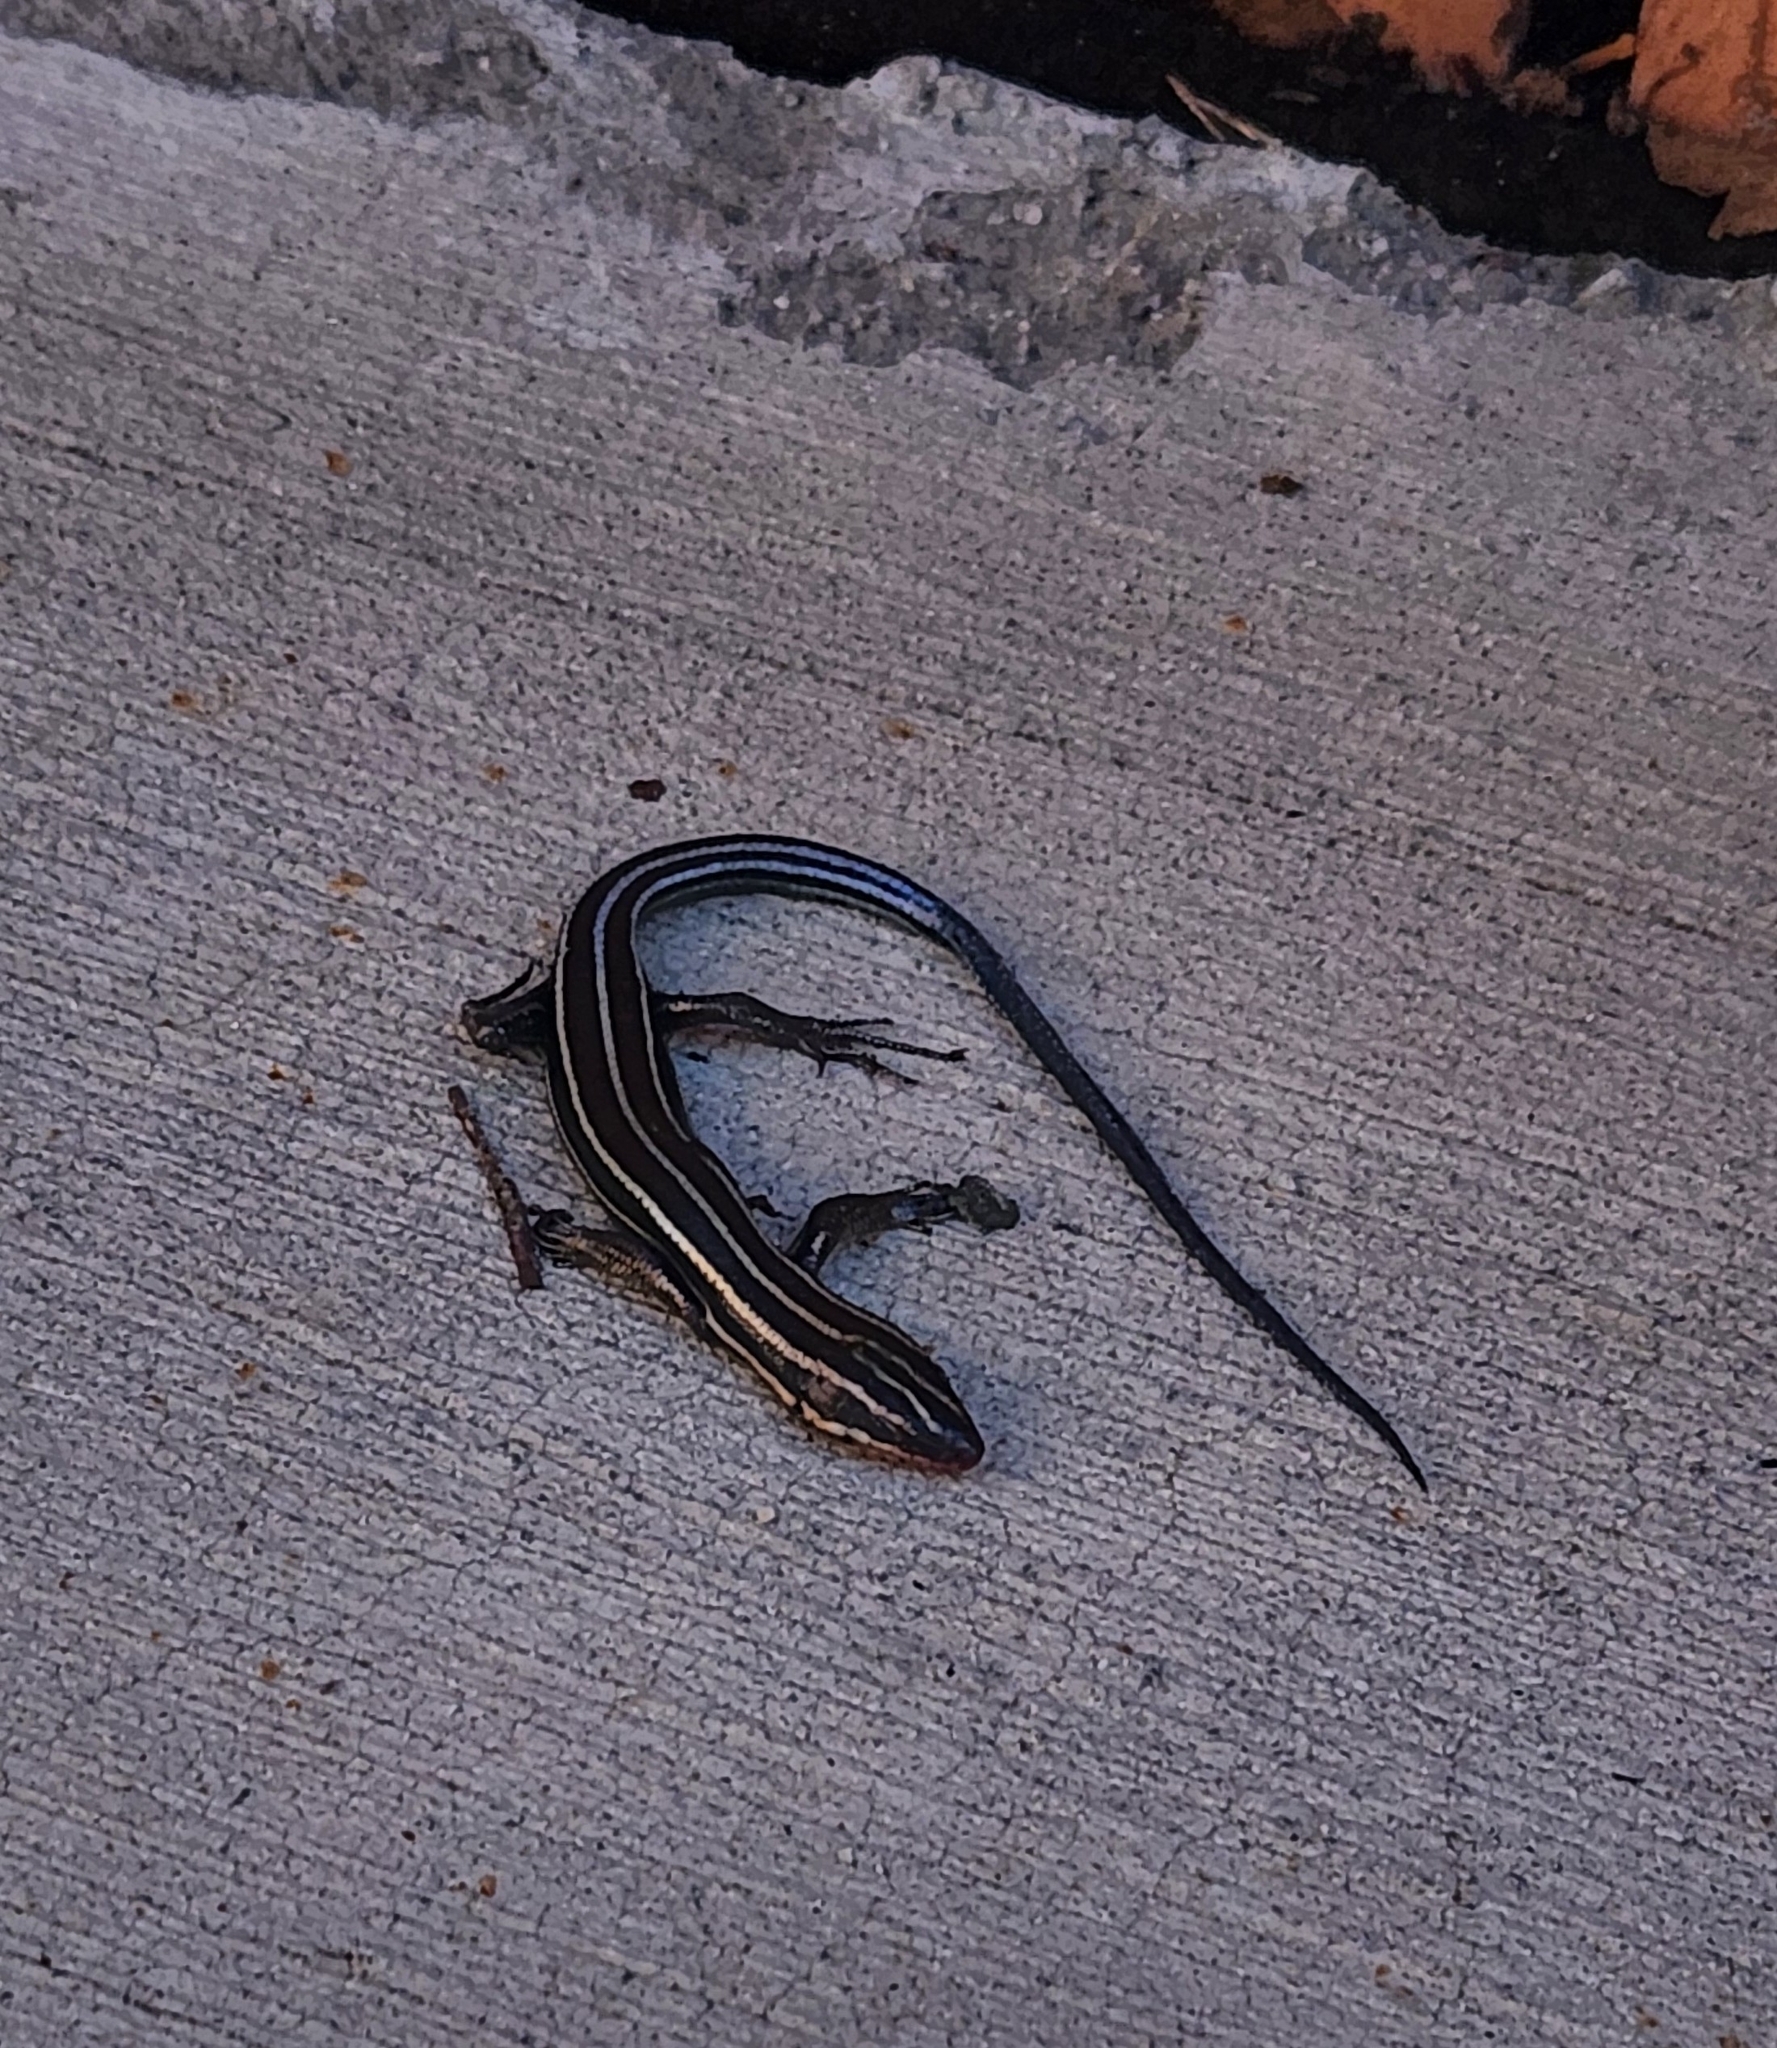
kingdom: Animalia
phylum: Chordata
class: Squamata
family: Scincidae
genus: Plestiodon
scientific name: Plestiodon fasciatus
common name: Five-lined skink
